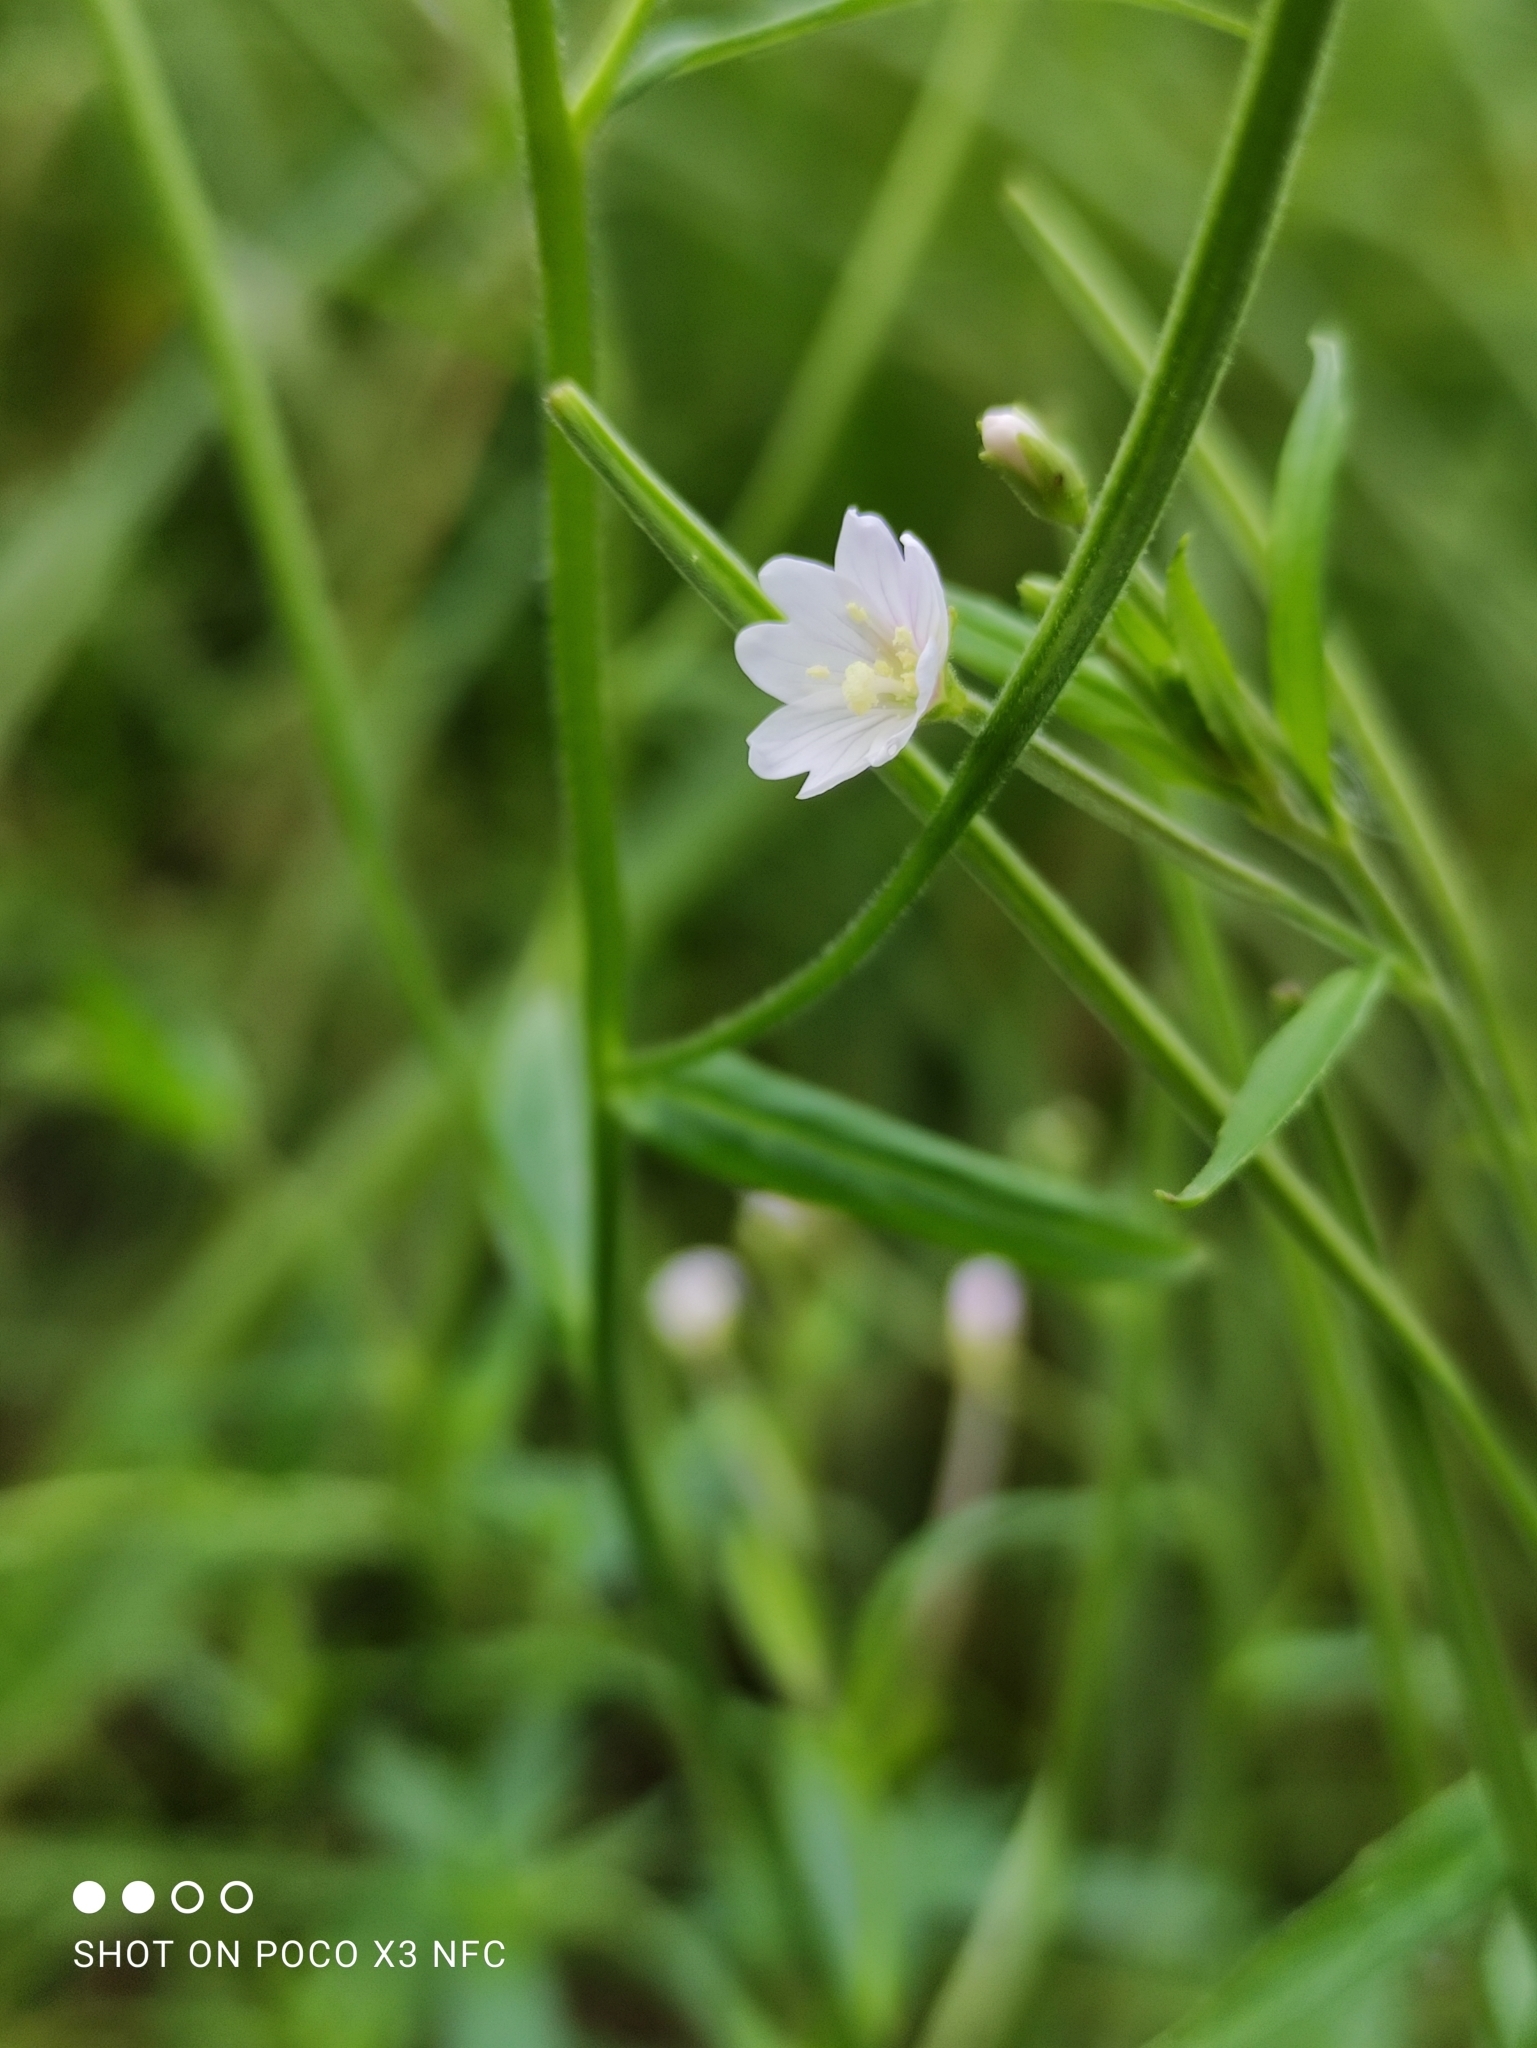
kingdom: Plantae
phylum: Tracheophyta
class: Magnoliopsida
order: Myrtales
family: Onagraceae
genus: Epilobium
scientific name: Epilobium palustre
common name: Marsh willowherb
